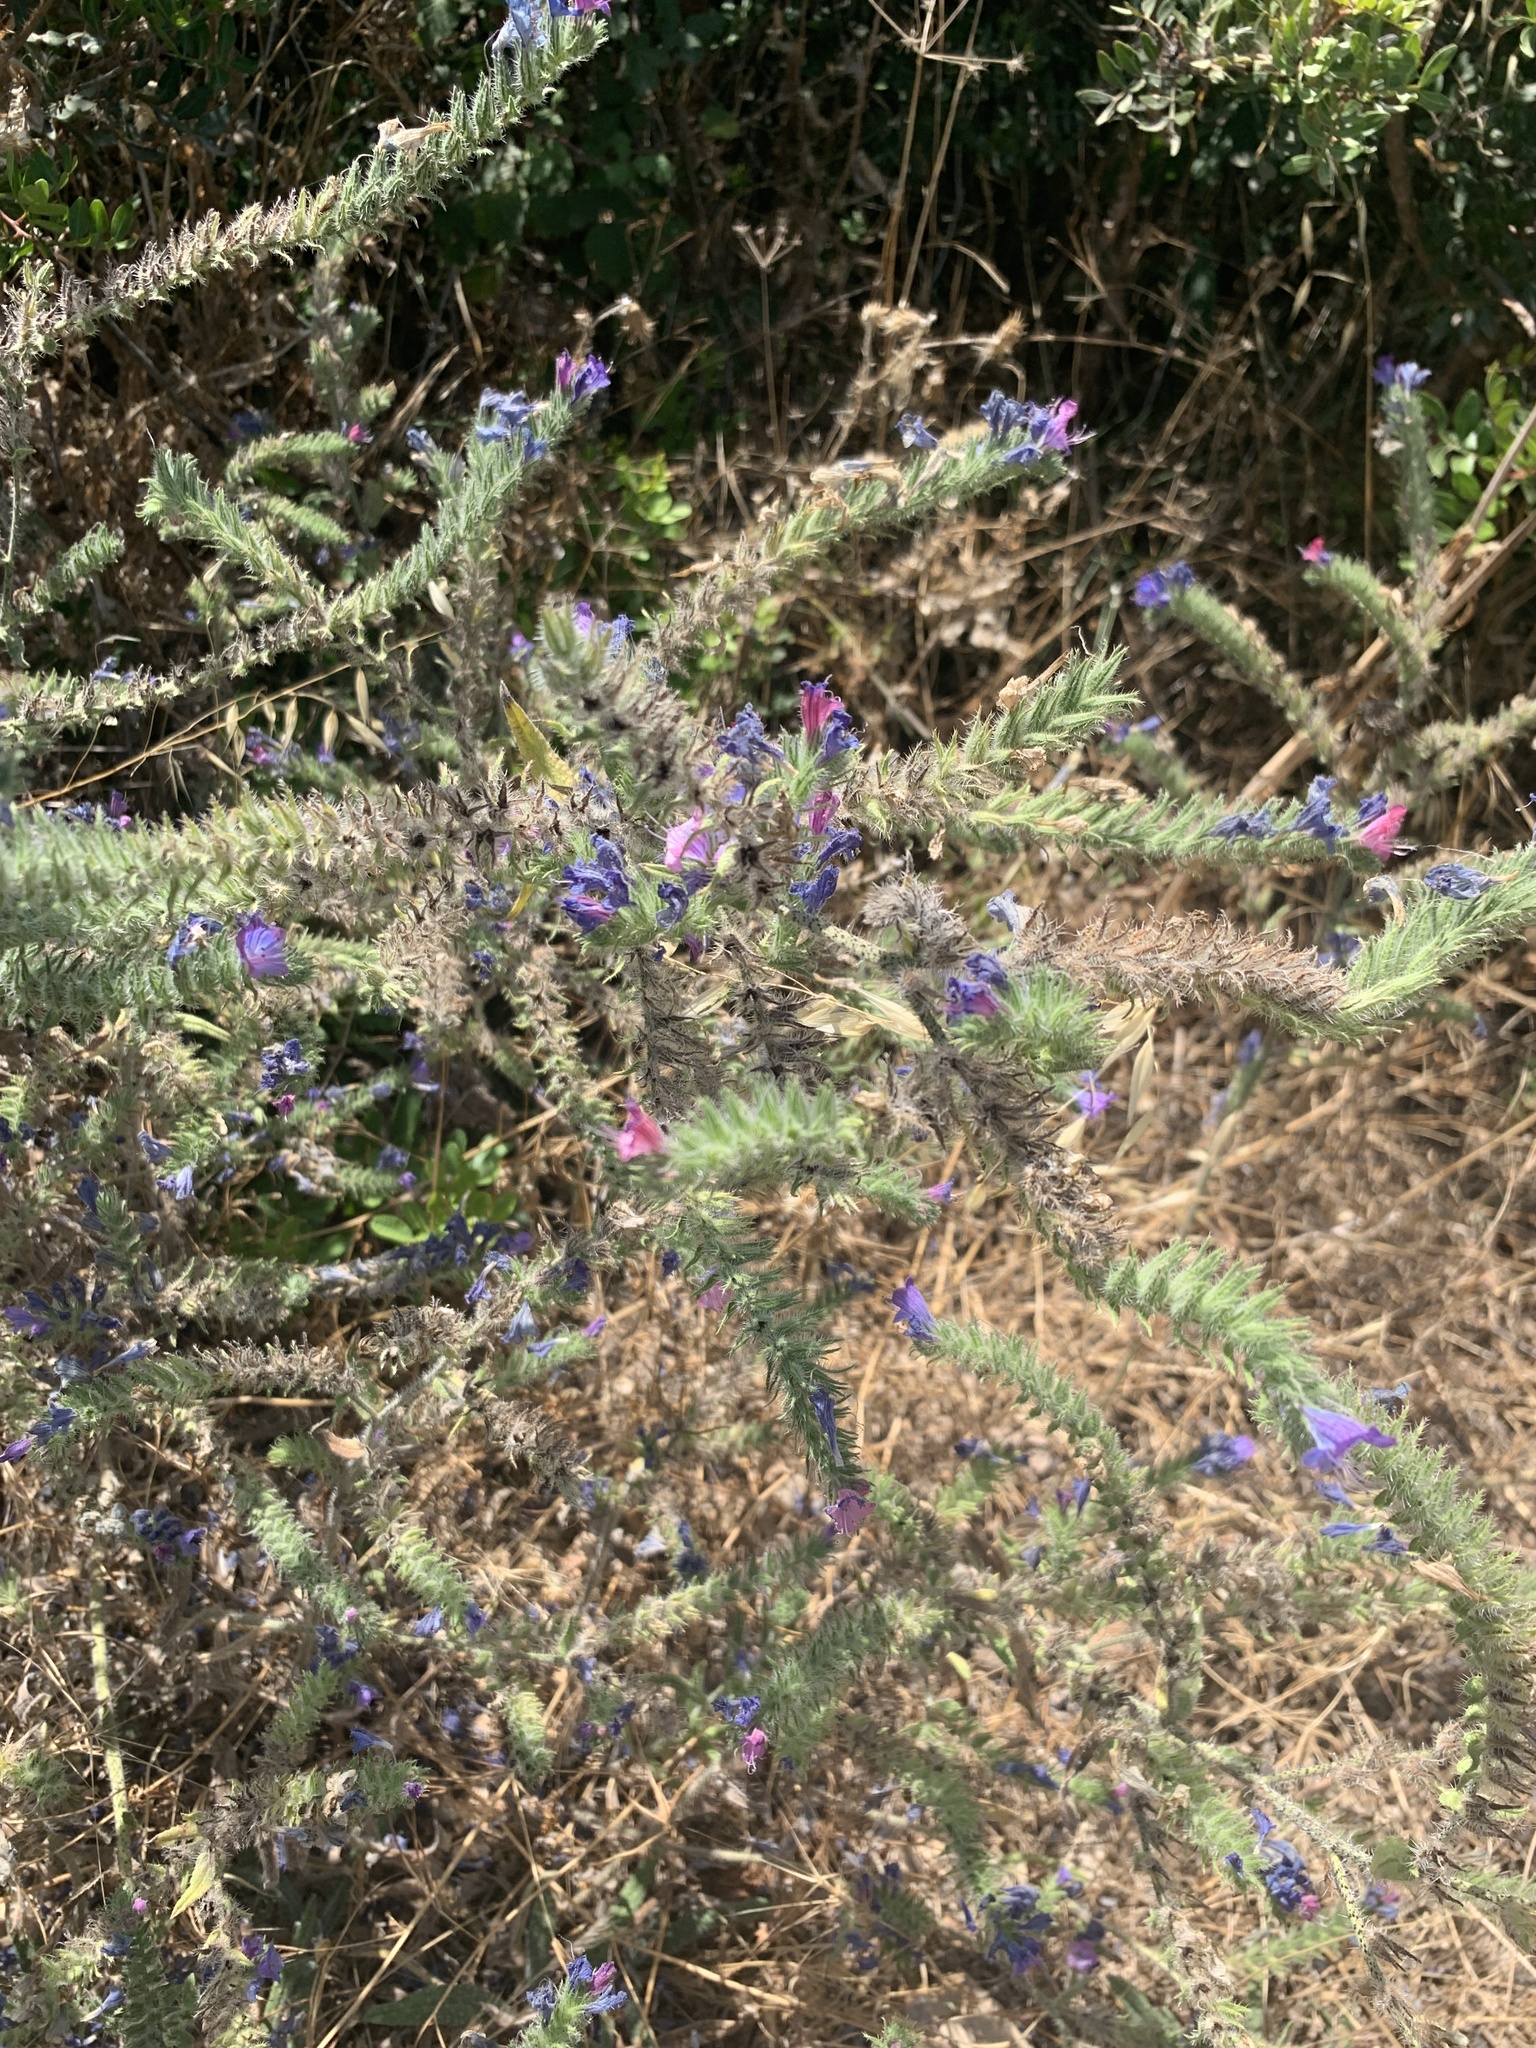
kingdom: Plantae
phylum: Tracheophyta
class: Magnoliopsida
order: Boraginales
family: Boraginaceae
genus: Echium
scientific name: Echium vulgare
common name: Common viper's bugloss
